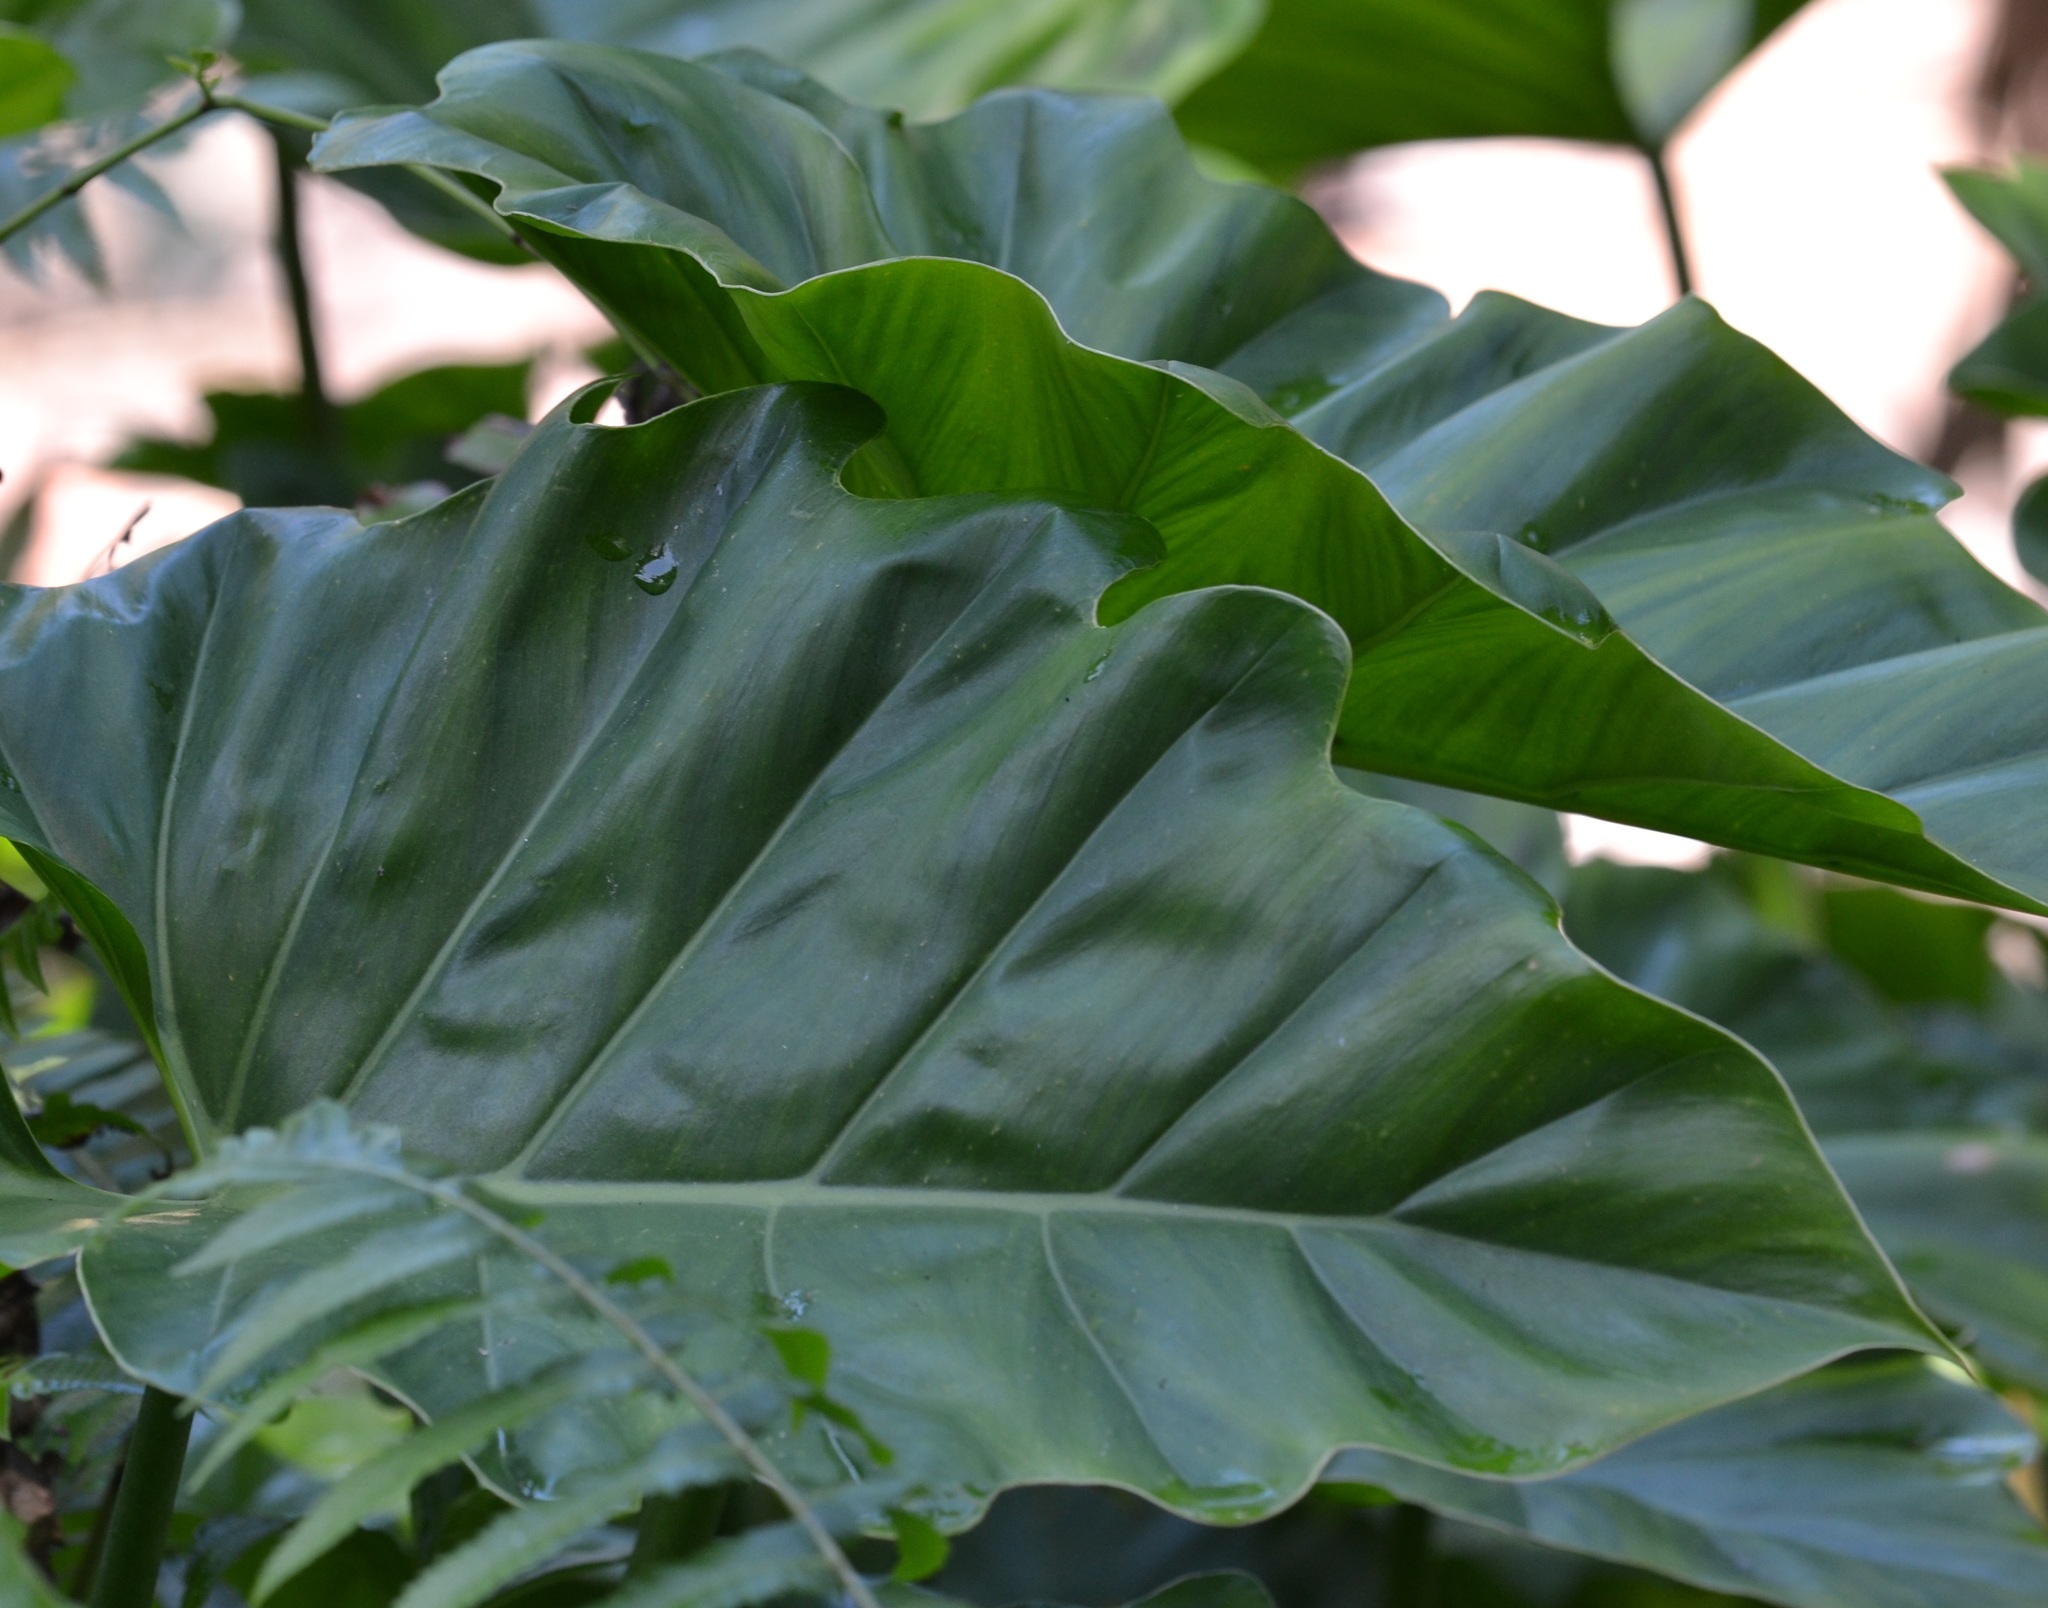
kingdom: Plantae
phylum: Tracheophyta
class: Liliopsida
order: Alismatales
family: Araceae
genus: Philodendron
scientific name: Philodendron lacerum
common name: Philodendron
